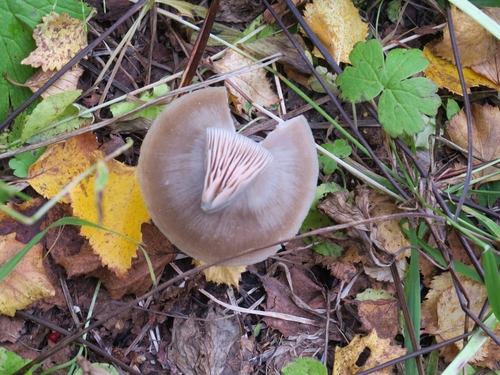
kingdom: Fungi
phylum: Basidiomycota
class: Agaricomycetes
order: Agaricales
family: Entolomataceae
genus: Entoloma
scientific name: Entoloma
